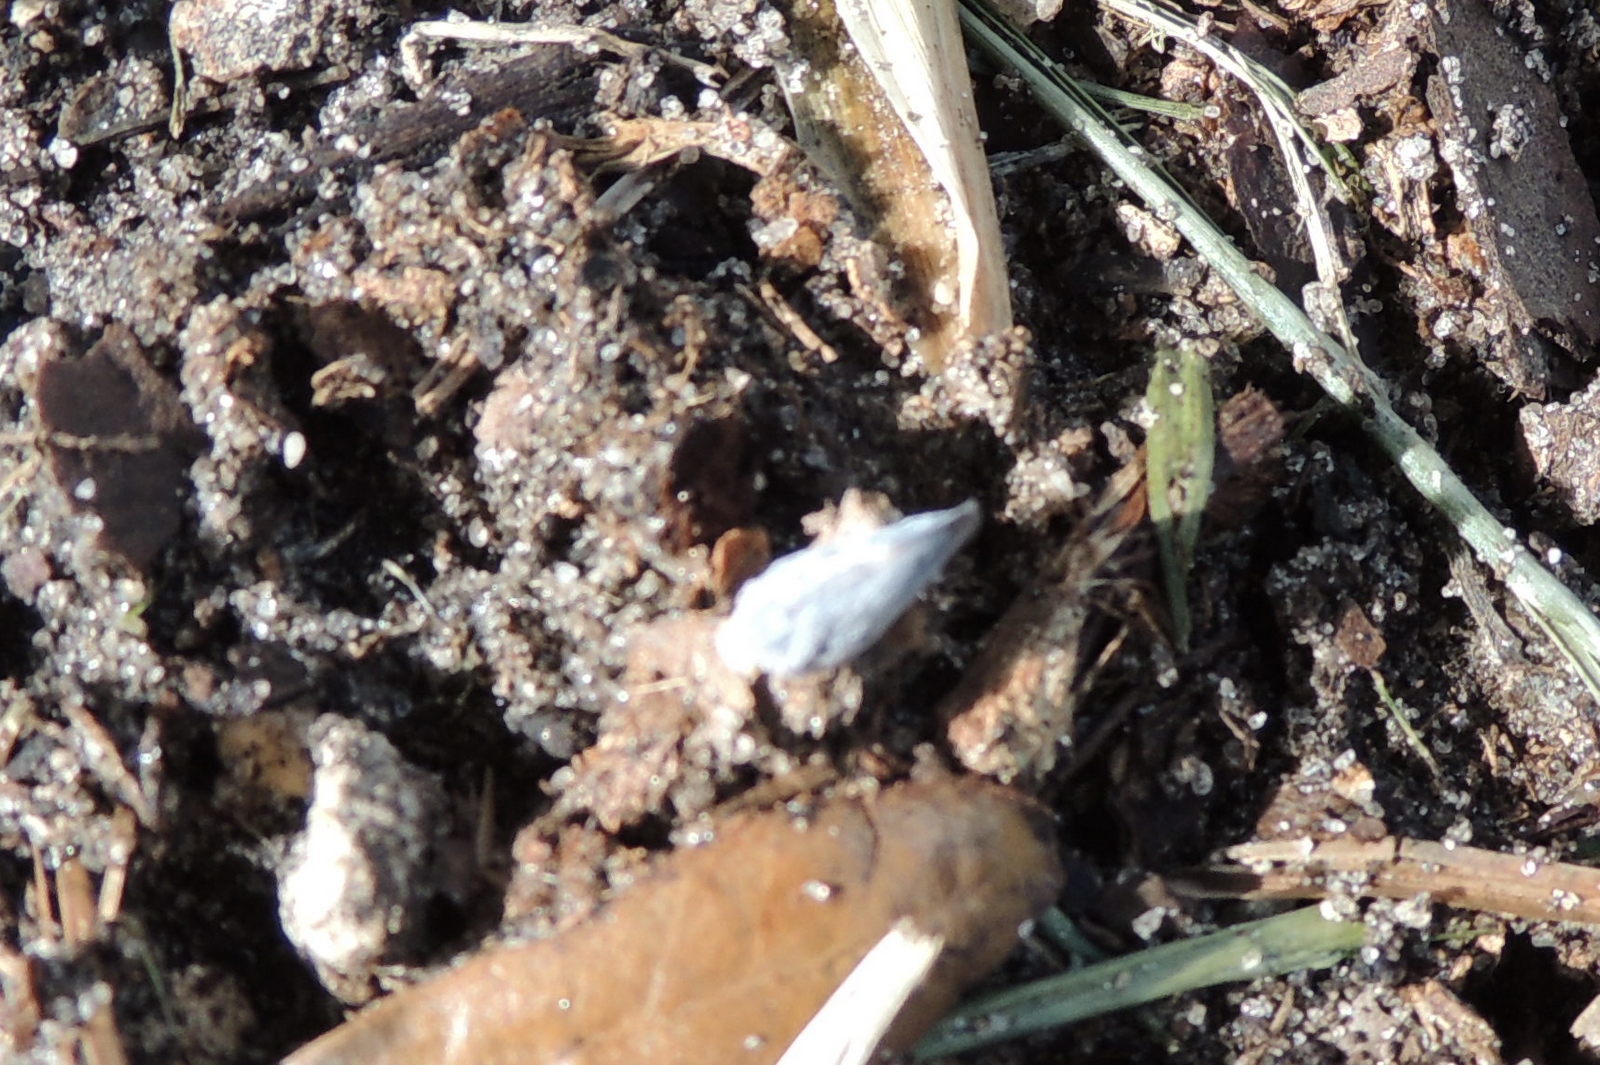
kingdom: Animalia
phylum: Arthropoda
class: Insecta
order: Hemiptera
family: Flatidae
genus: Metcalfa
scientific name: Metcalfa pruinosa
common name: Citrus flatid planthopper
